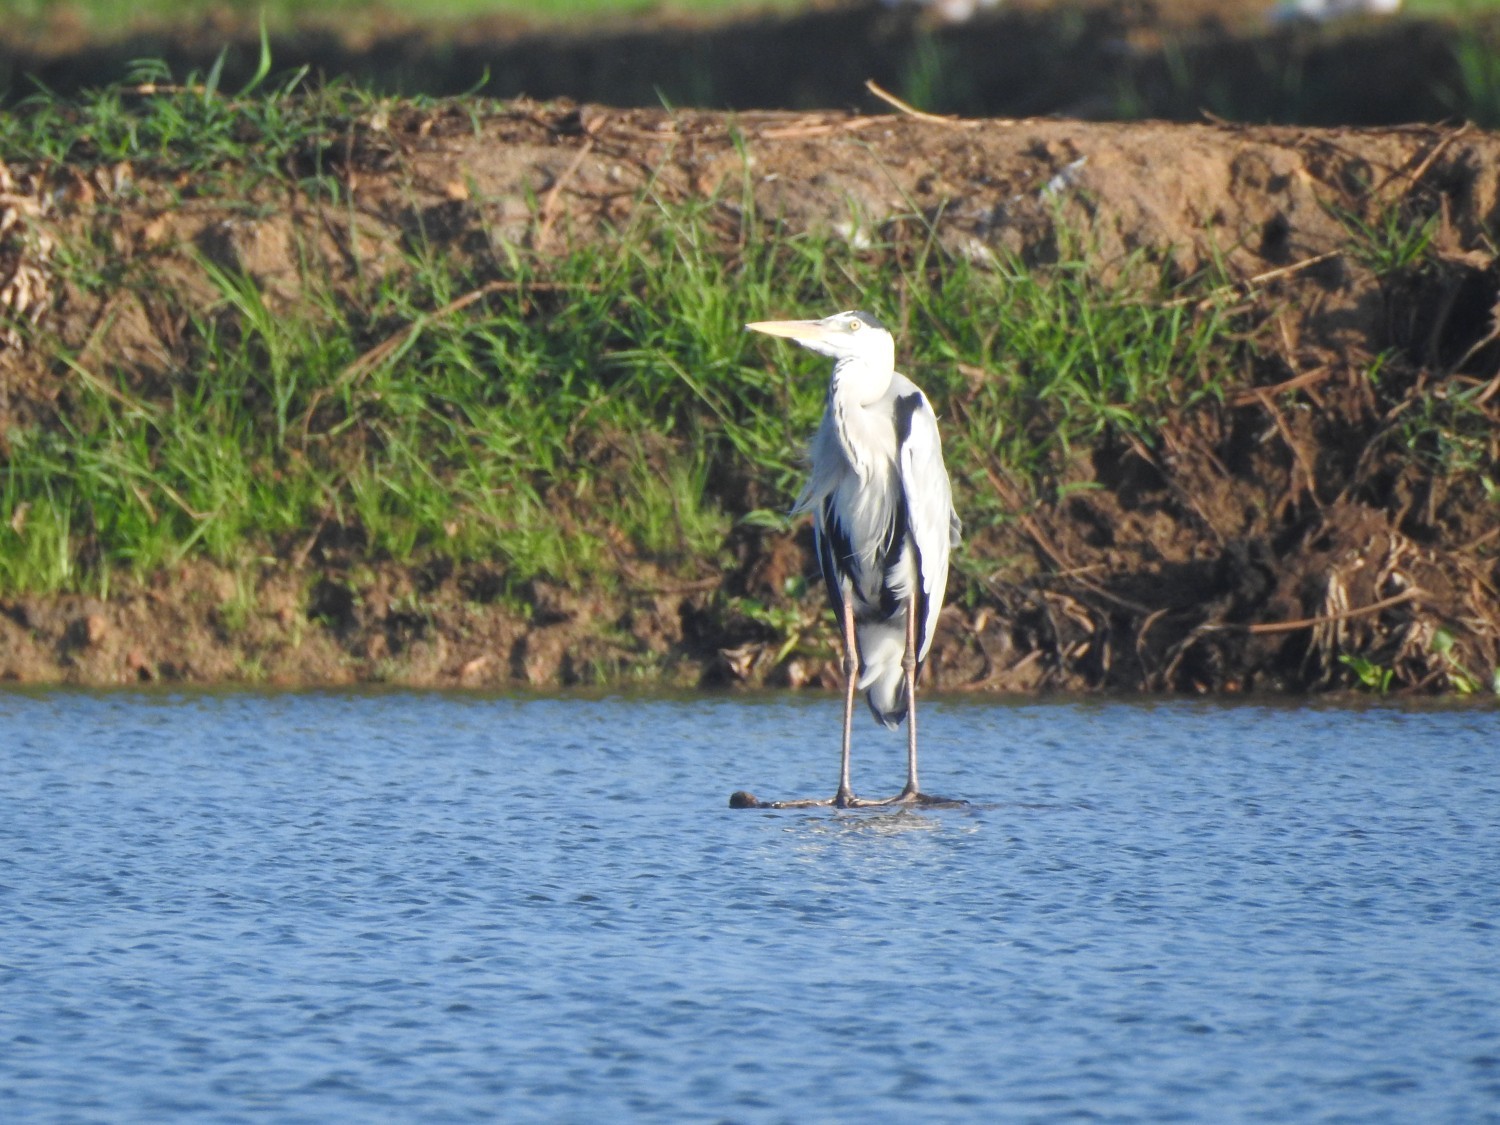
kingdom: Animalia
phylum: Chordata
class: Aves
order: Pelecaniformes
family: Ardeidae
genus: Ardea
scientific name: Ardea cinerea
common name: Grey heron
